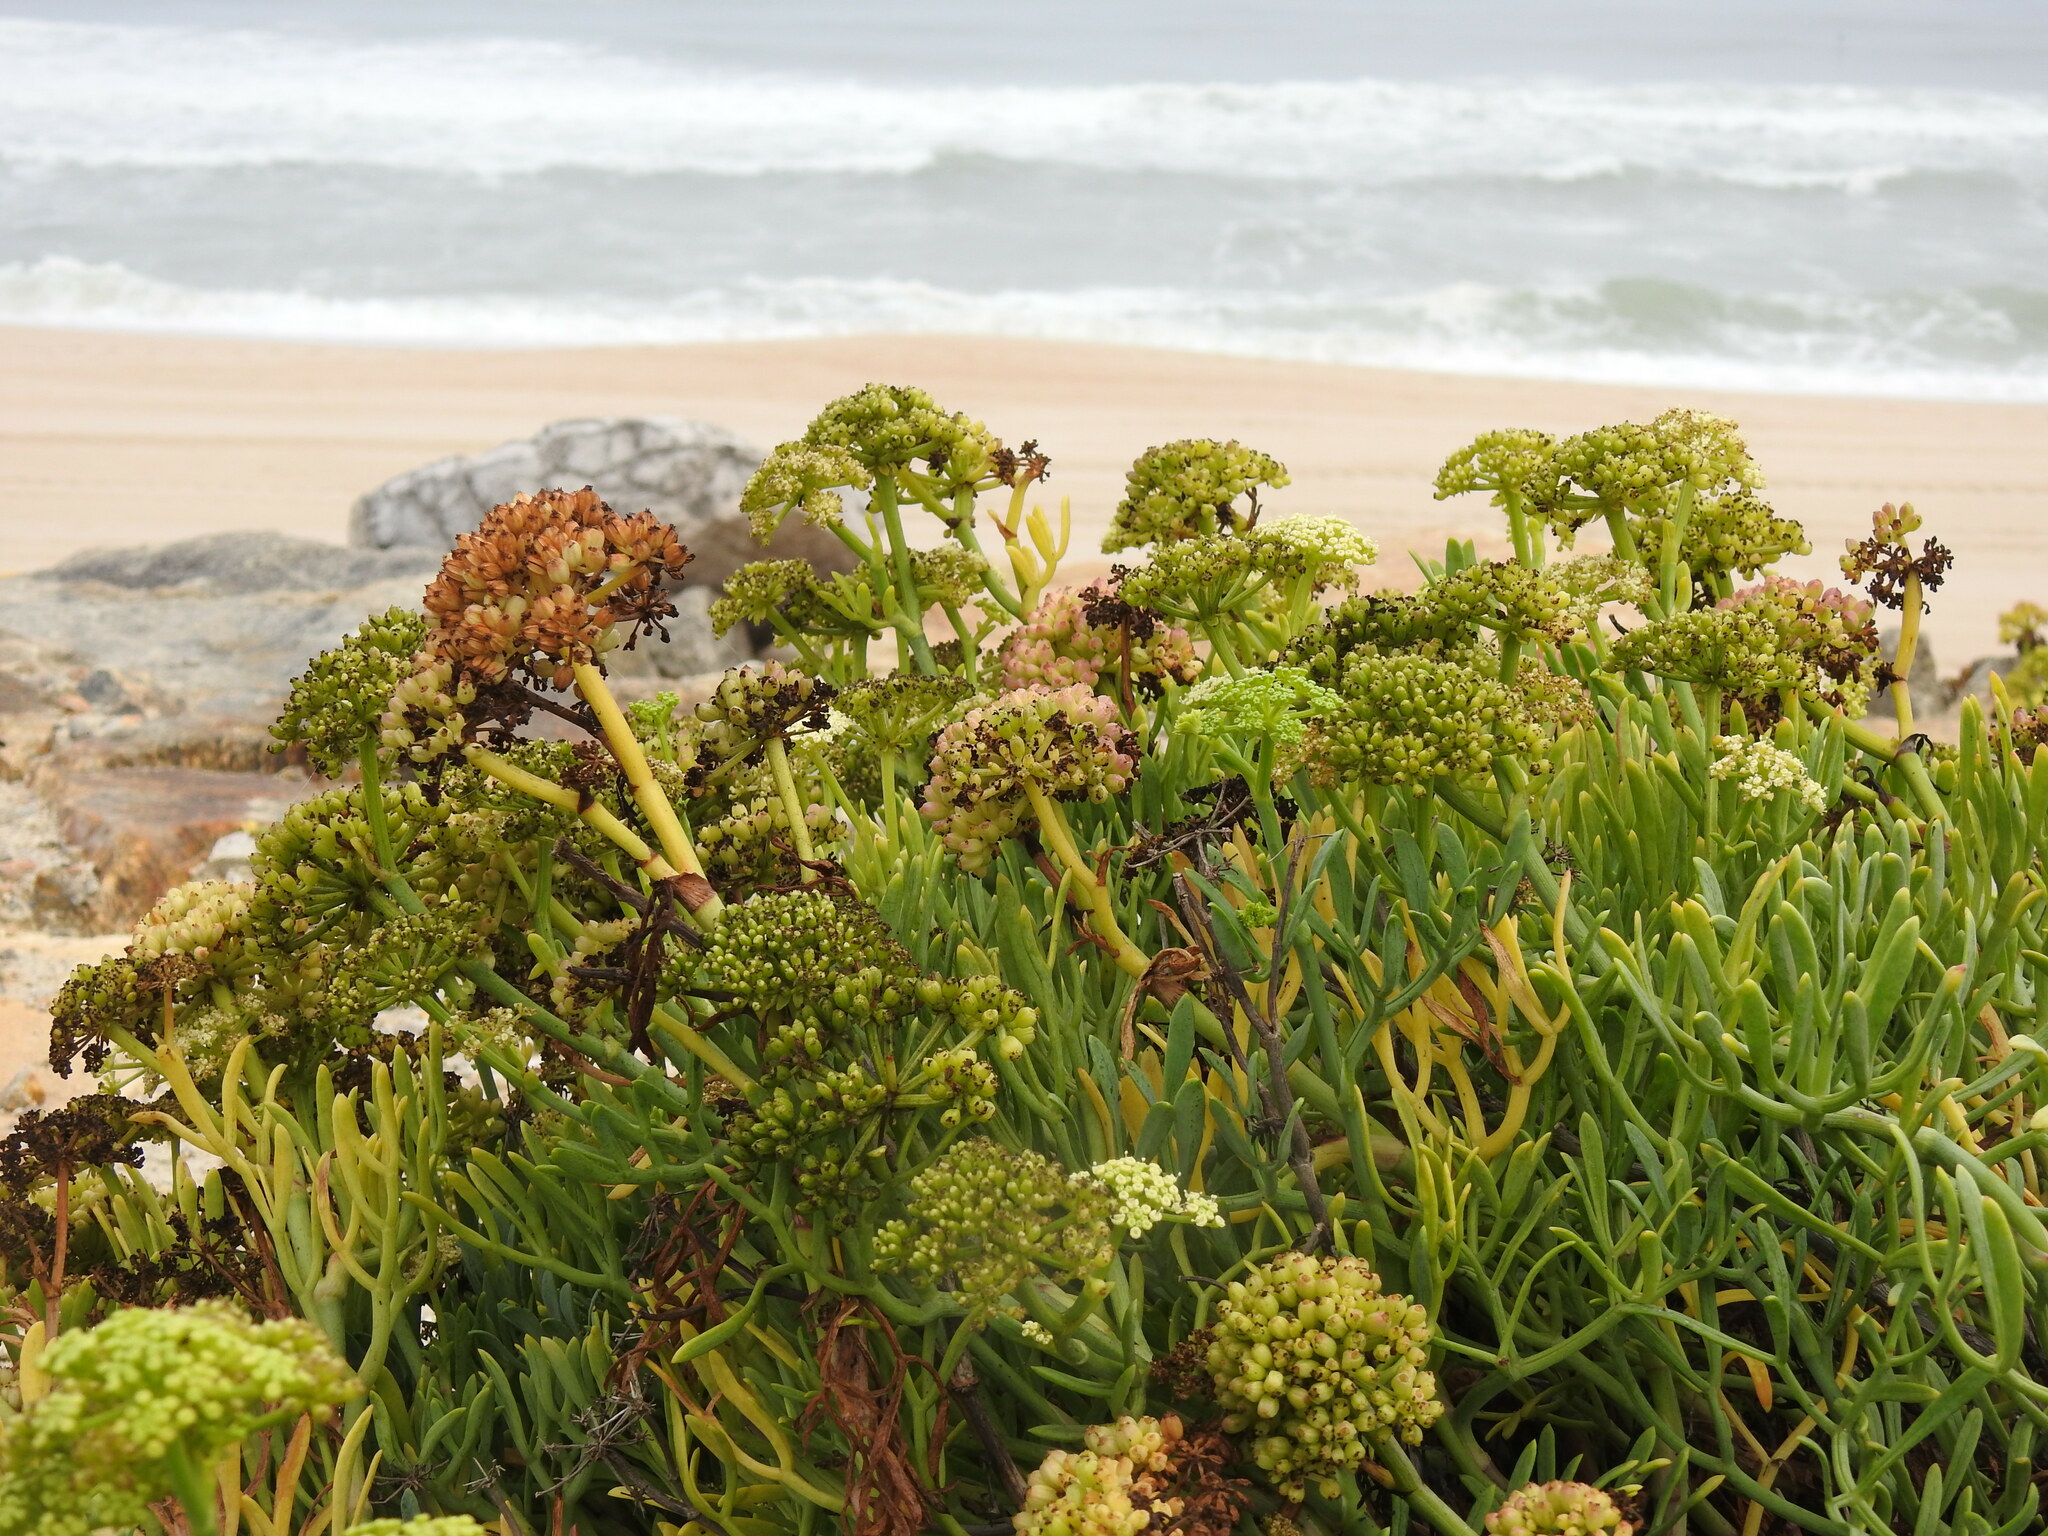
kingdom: Plantae
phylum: Tracheophyta
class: Magnoliopsida
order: Apiales
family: Apiaceae
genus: Crithmum
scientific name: Crithmum maritimum
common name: Rock samphire
